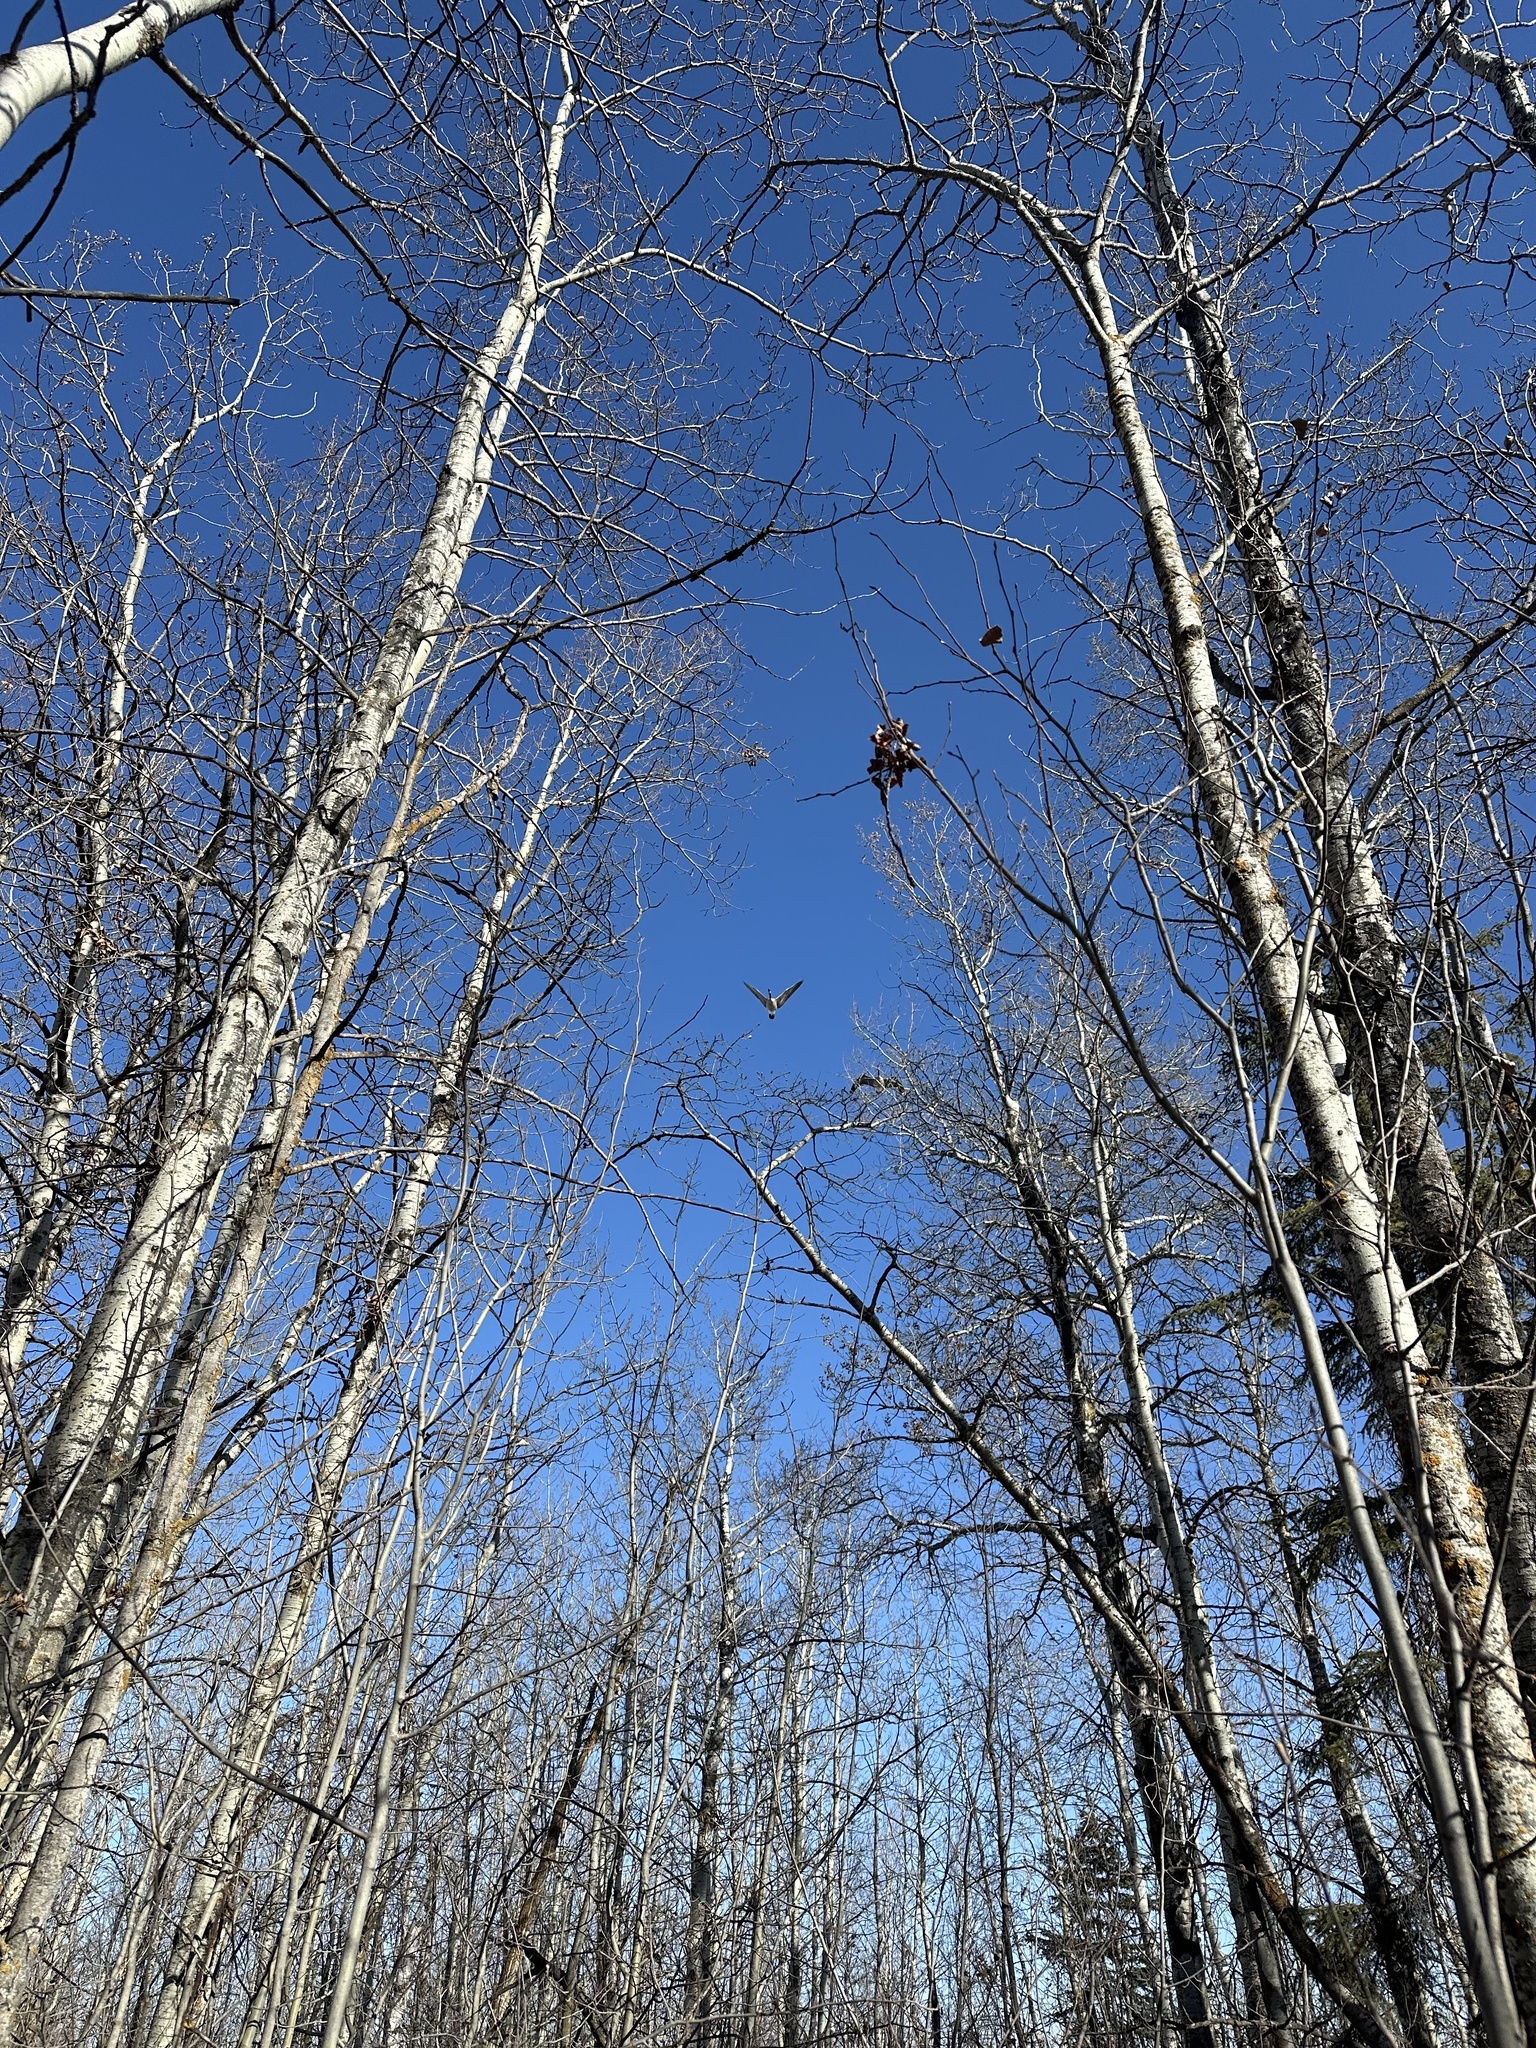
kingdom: Animalia
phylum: Chordata
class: Aves
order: Anseriformes
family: Anatidae
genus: Branta
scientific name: Branta canadensis
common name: Canada goose
